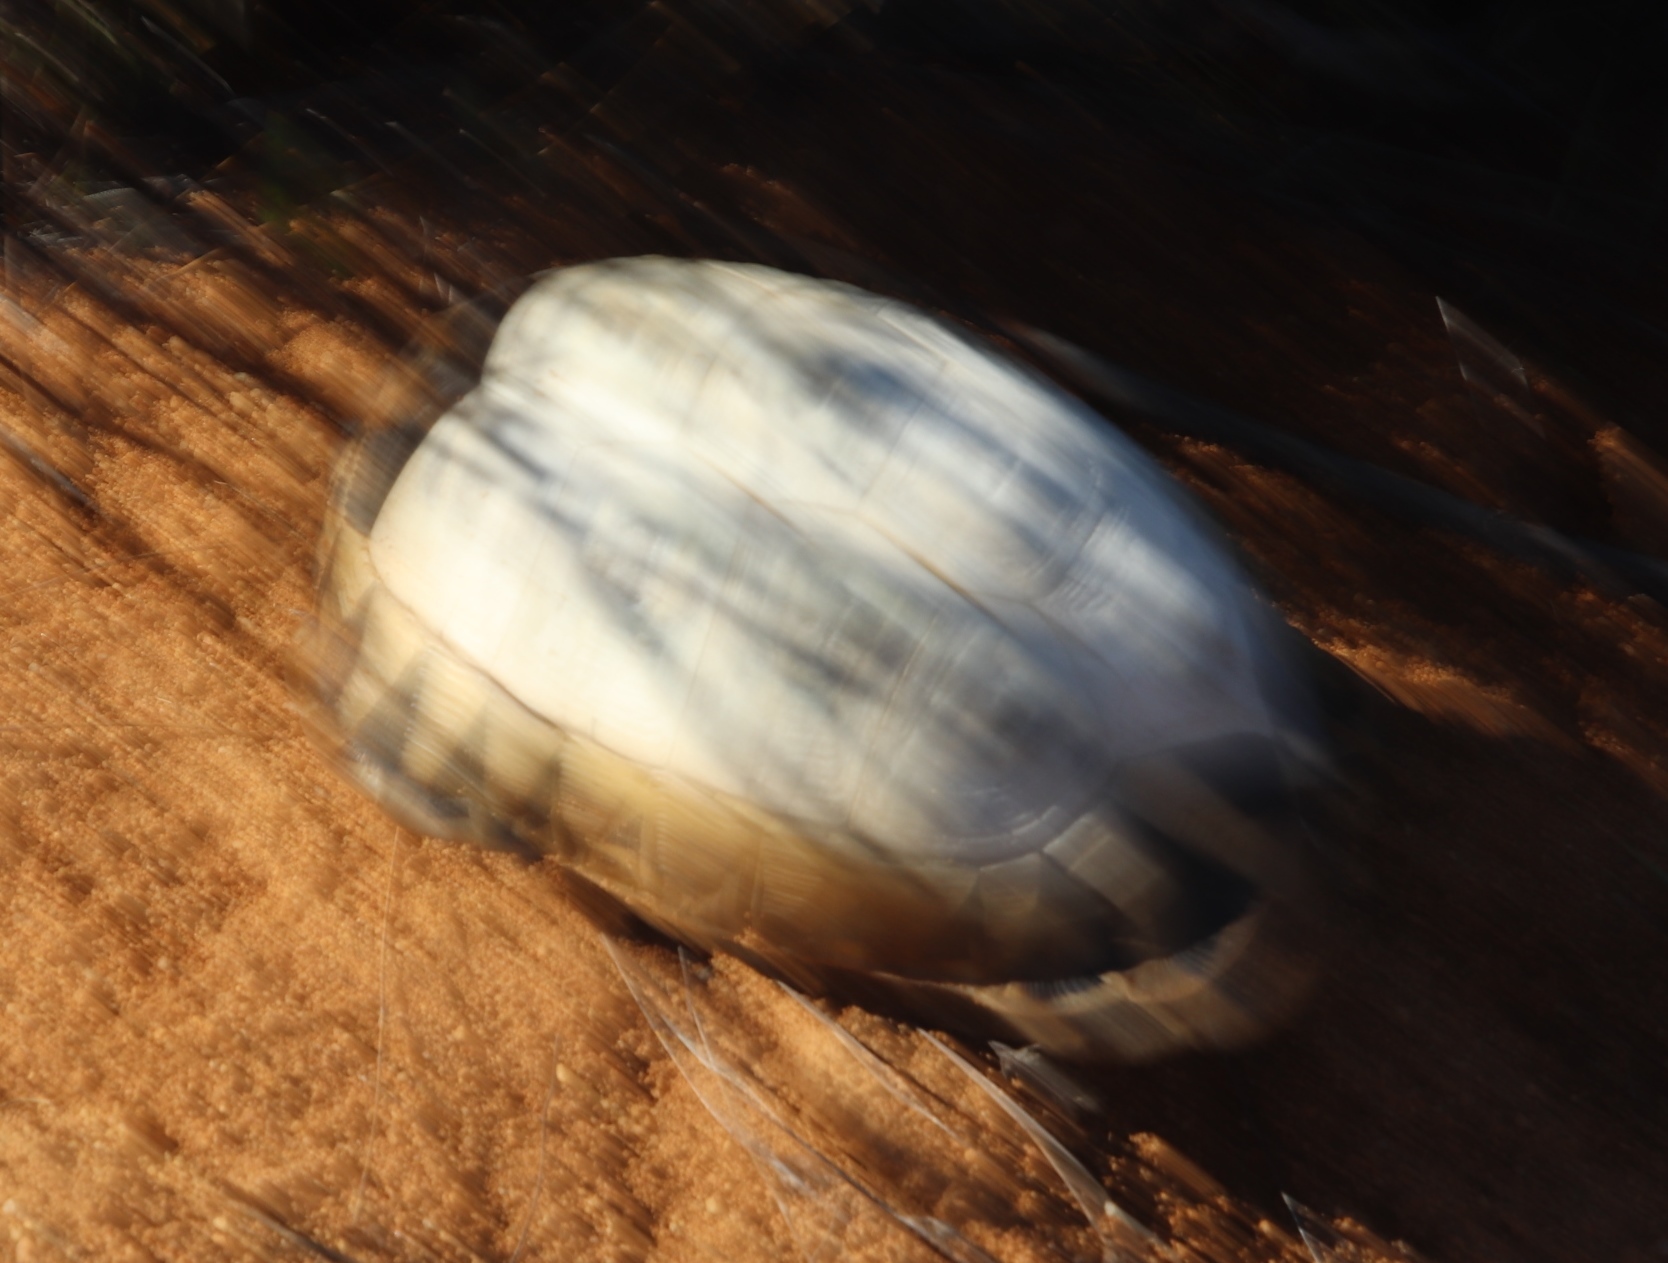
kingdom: Animalia
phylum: Chordata
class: Testudines
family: Testudinidae
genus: Chersina
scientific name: Chersina angulata
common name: South african bowsprit tortoise
